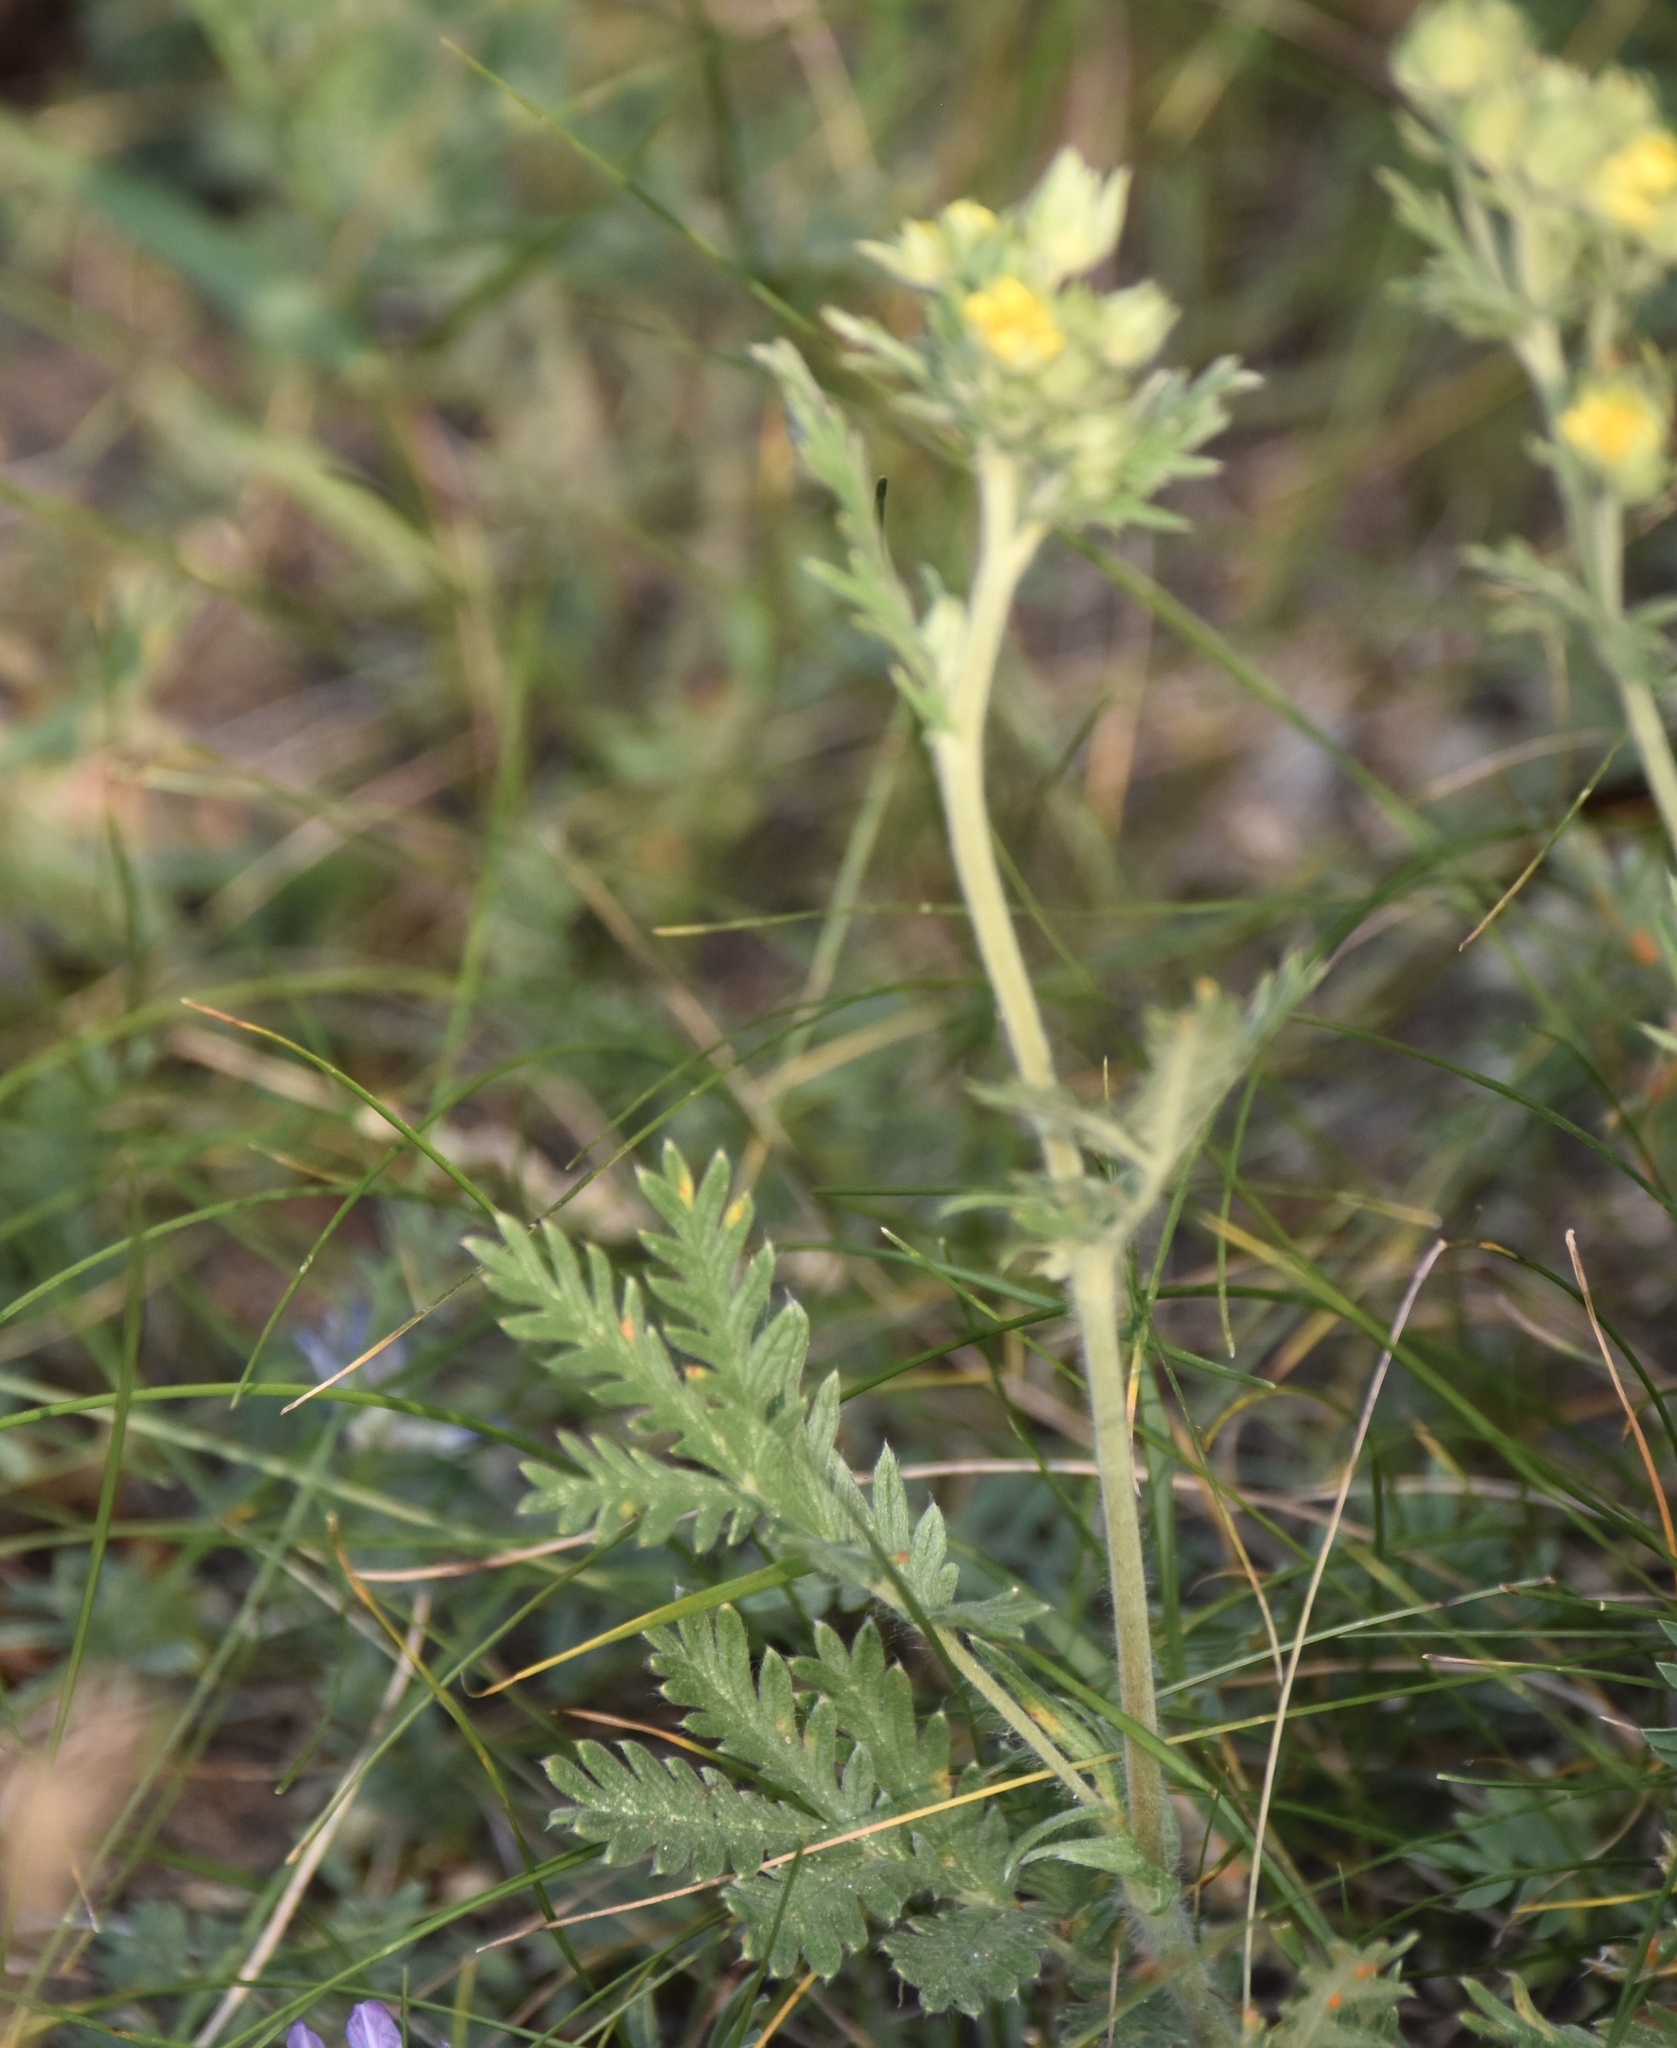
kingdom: Plantae
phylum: Tracheophyta
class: Magnoliopsida
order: Rosales
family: Rosaceae
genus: Potentilla
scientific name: Potentilla pensylvanica
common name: Pennsylvania cinquefoil
